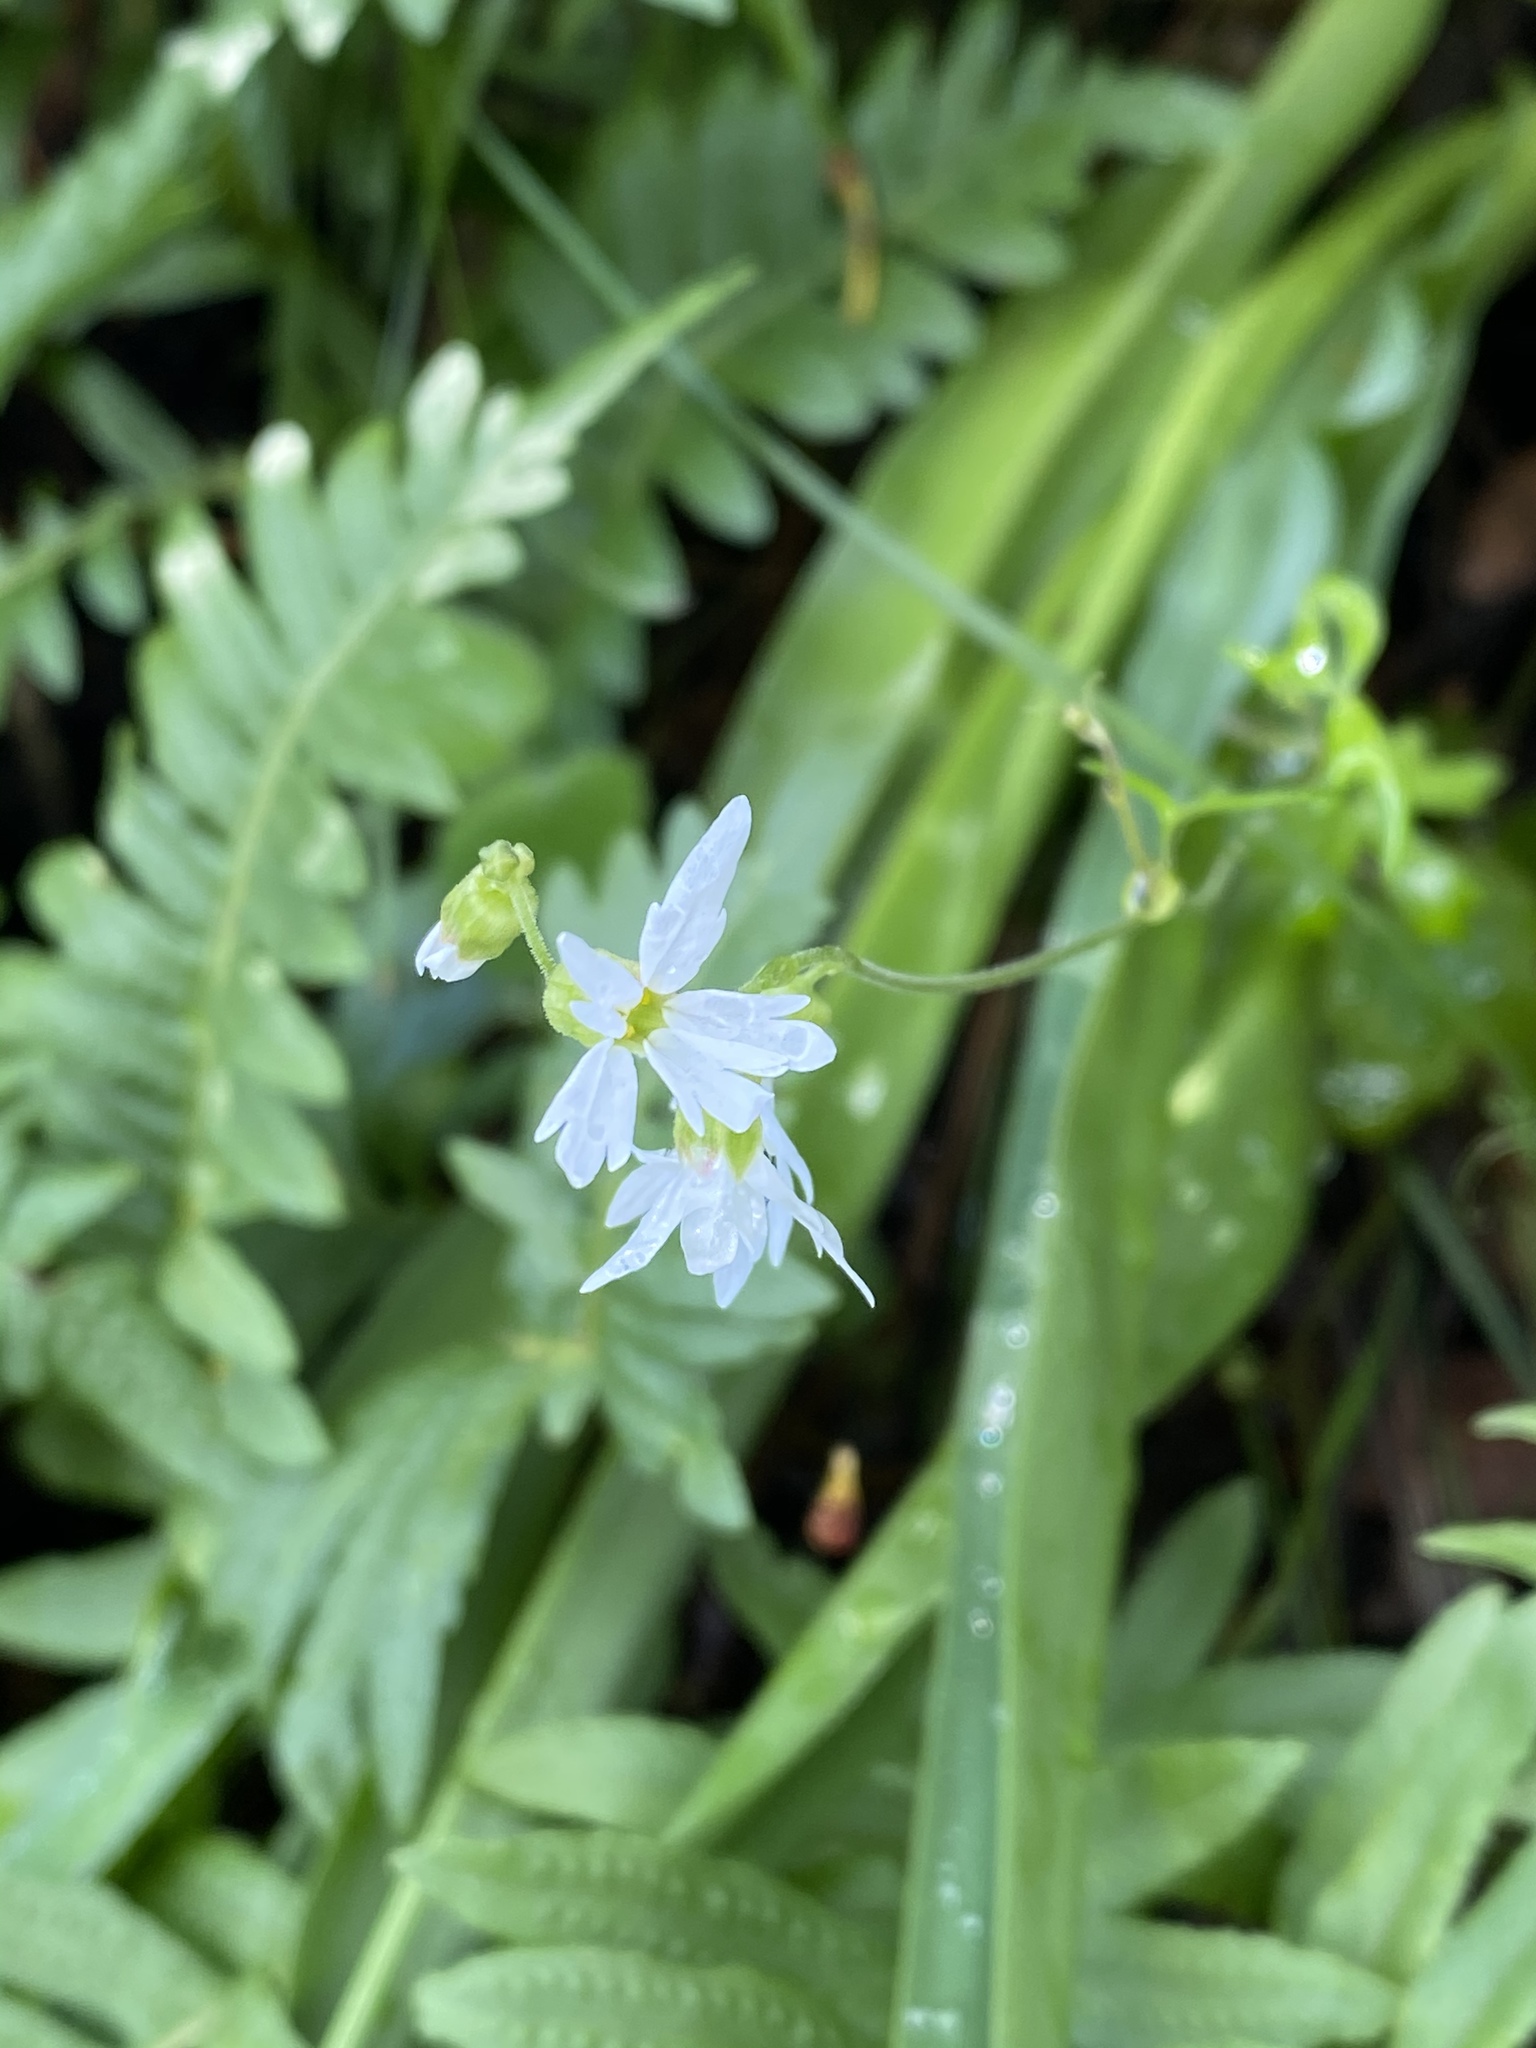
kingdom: Plantae
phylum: Tracheophyta
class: Magnoliopsida
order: Saxifragales
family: Saxifragaceae
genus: Lithophragma
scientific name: Lithophragma heterophyllum
